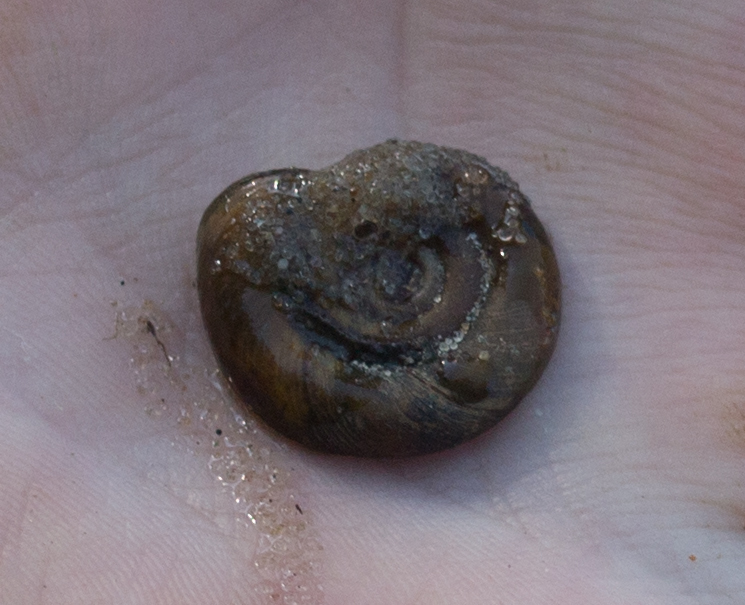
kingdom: Animalia
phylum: Mollusca
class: Gastropoda
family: Planorbidae
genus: Planorbarius
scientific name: Planorbarius corneus
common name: Great ramshorn
